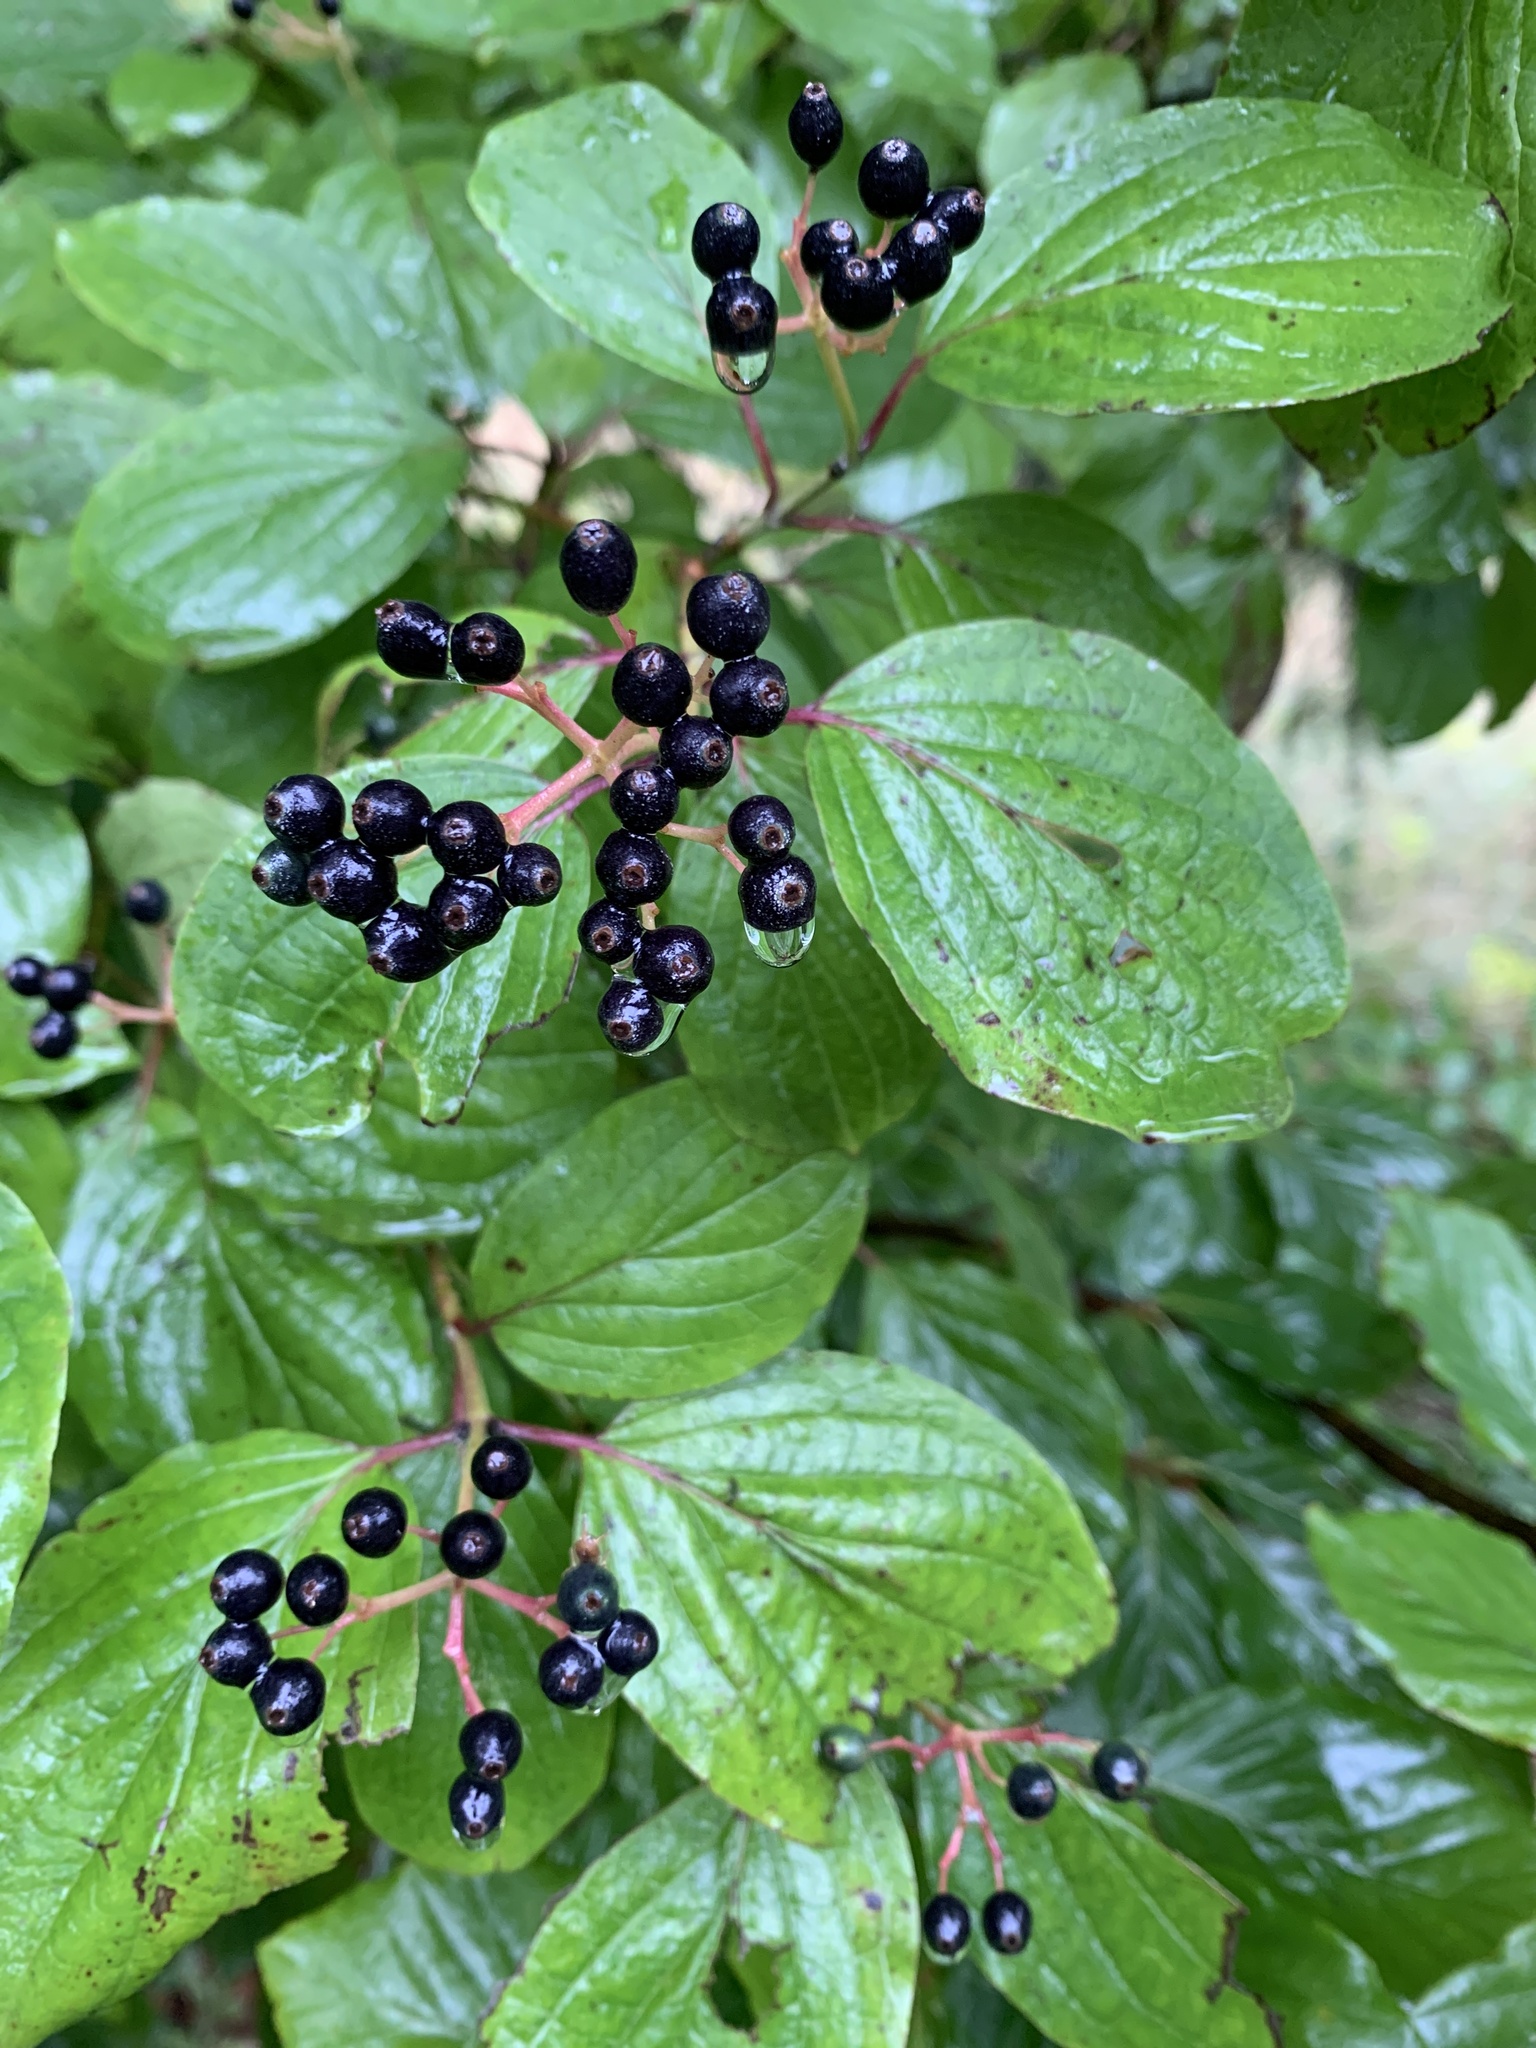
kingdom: Plantae
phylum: Tracheophyta
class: Magnoliopsida
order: Cornales
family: Cornaceae
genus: Cornus
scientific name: Cornus sanguinea
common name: Dogwood
